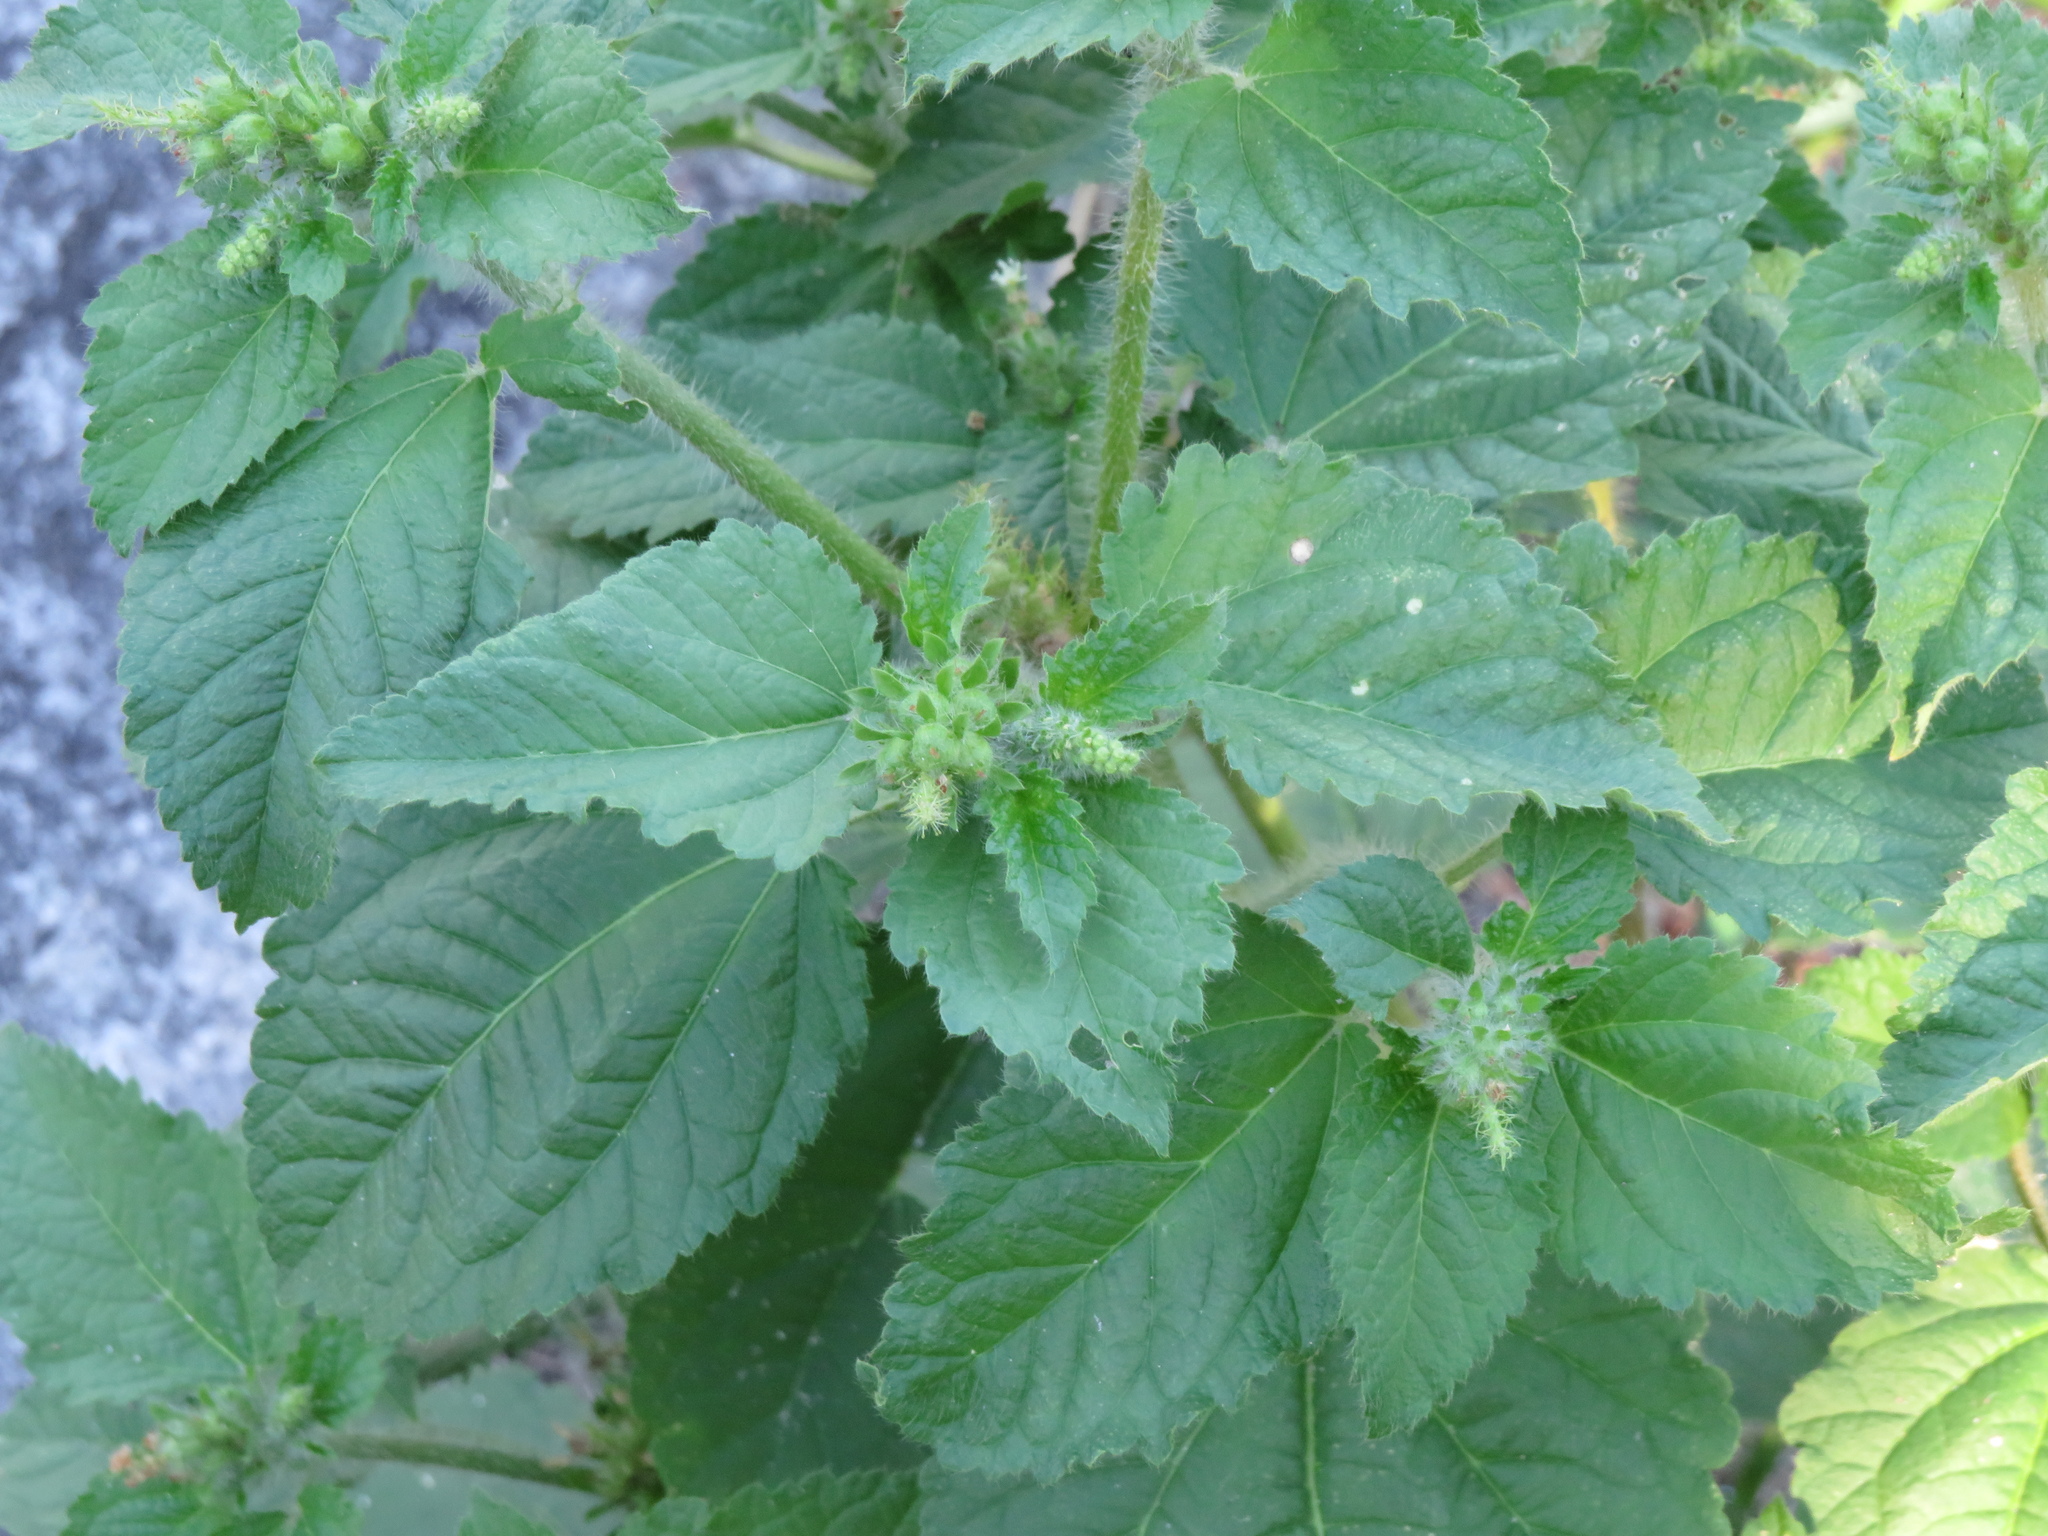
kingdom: Plantae
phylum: Tracheophyta
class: Magnoliopsida
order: Malpighiales
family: Euphorbiaceae
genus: Croton
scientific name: Croton hirtus
